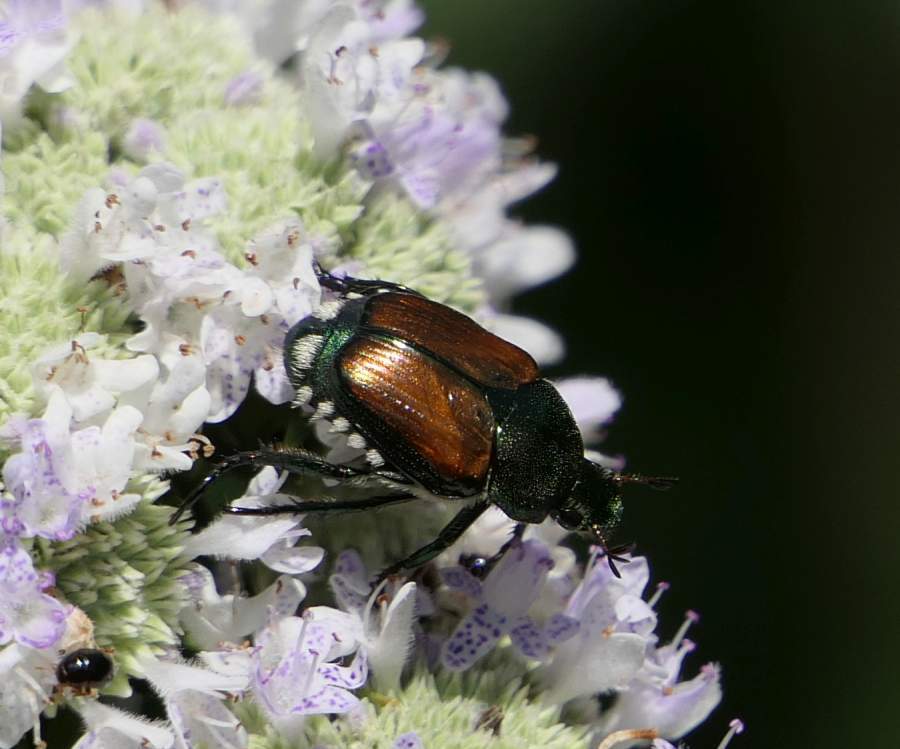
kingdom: Animalia
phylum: Arthropoda
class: Insecta
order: Coleoptera
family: Scarabaeidae
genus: Popillia
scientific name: Popillia japonica
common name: Japanese beetle
